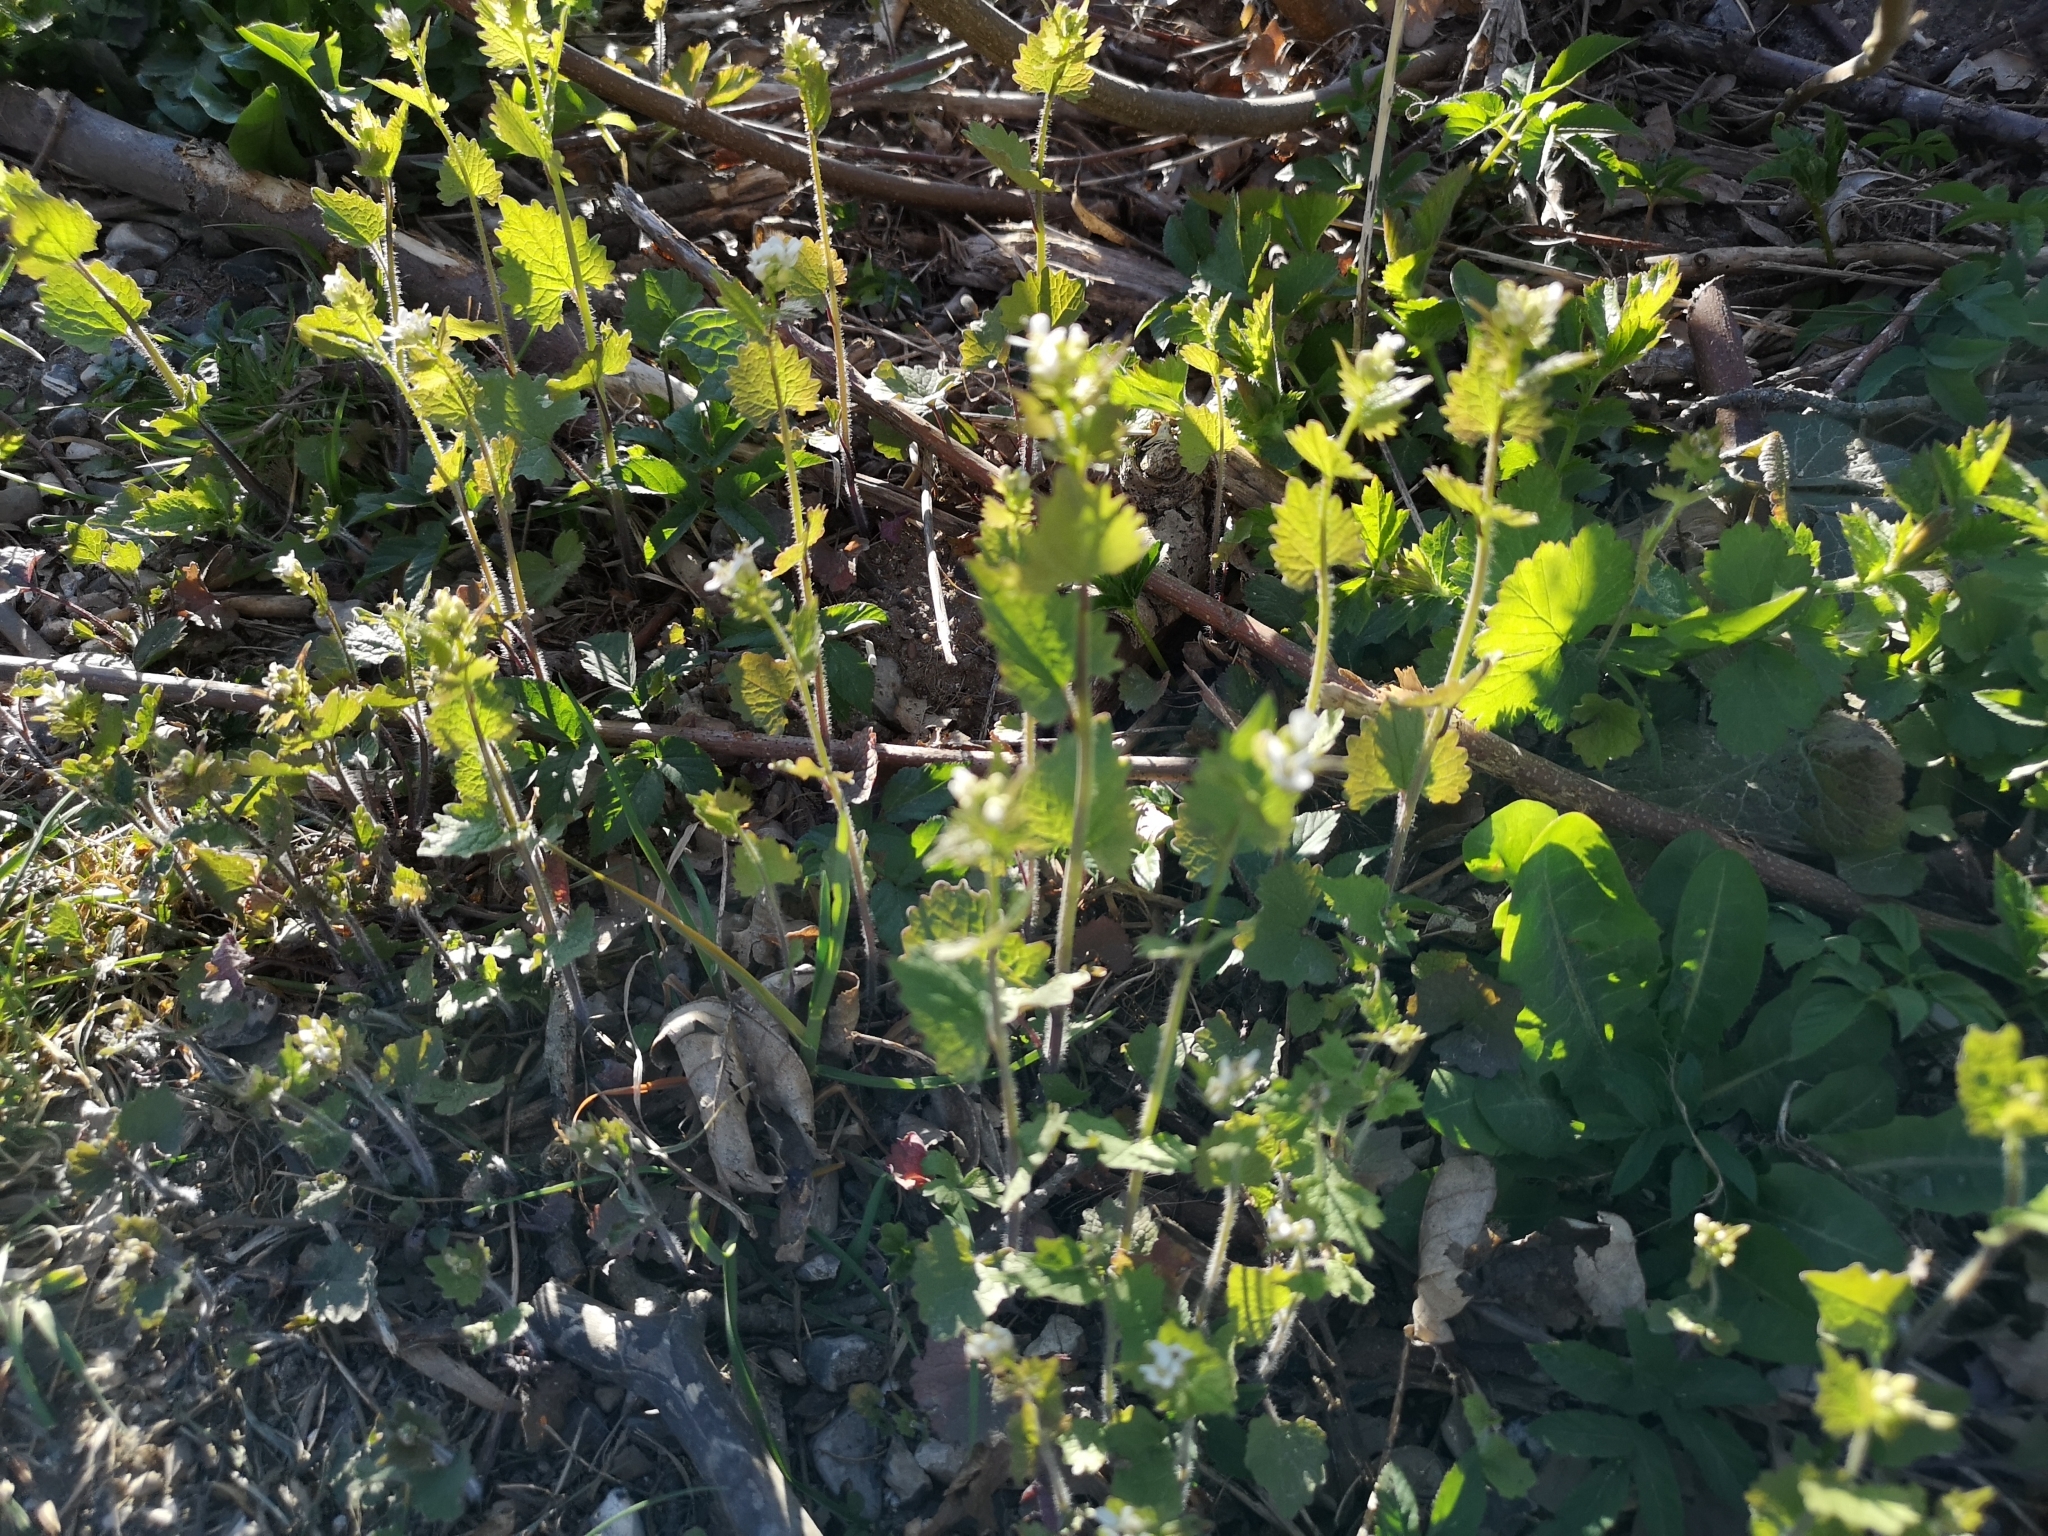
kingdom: Plantae
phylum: Tracheophyta
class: Magnoliopsida
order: Brassicales
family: Brassicaceae
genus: Alliaria
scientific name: Alliaria petiolata
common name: Garlic mustard
